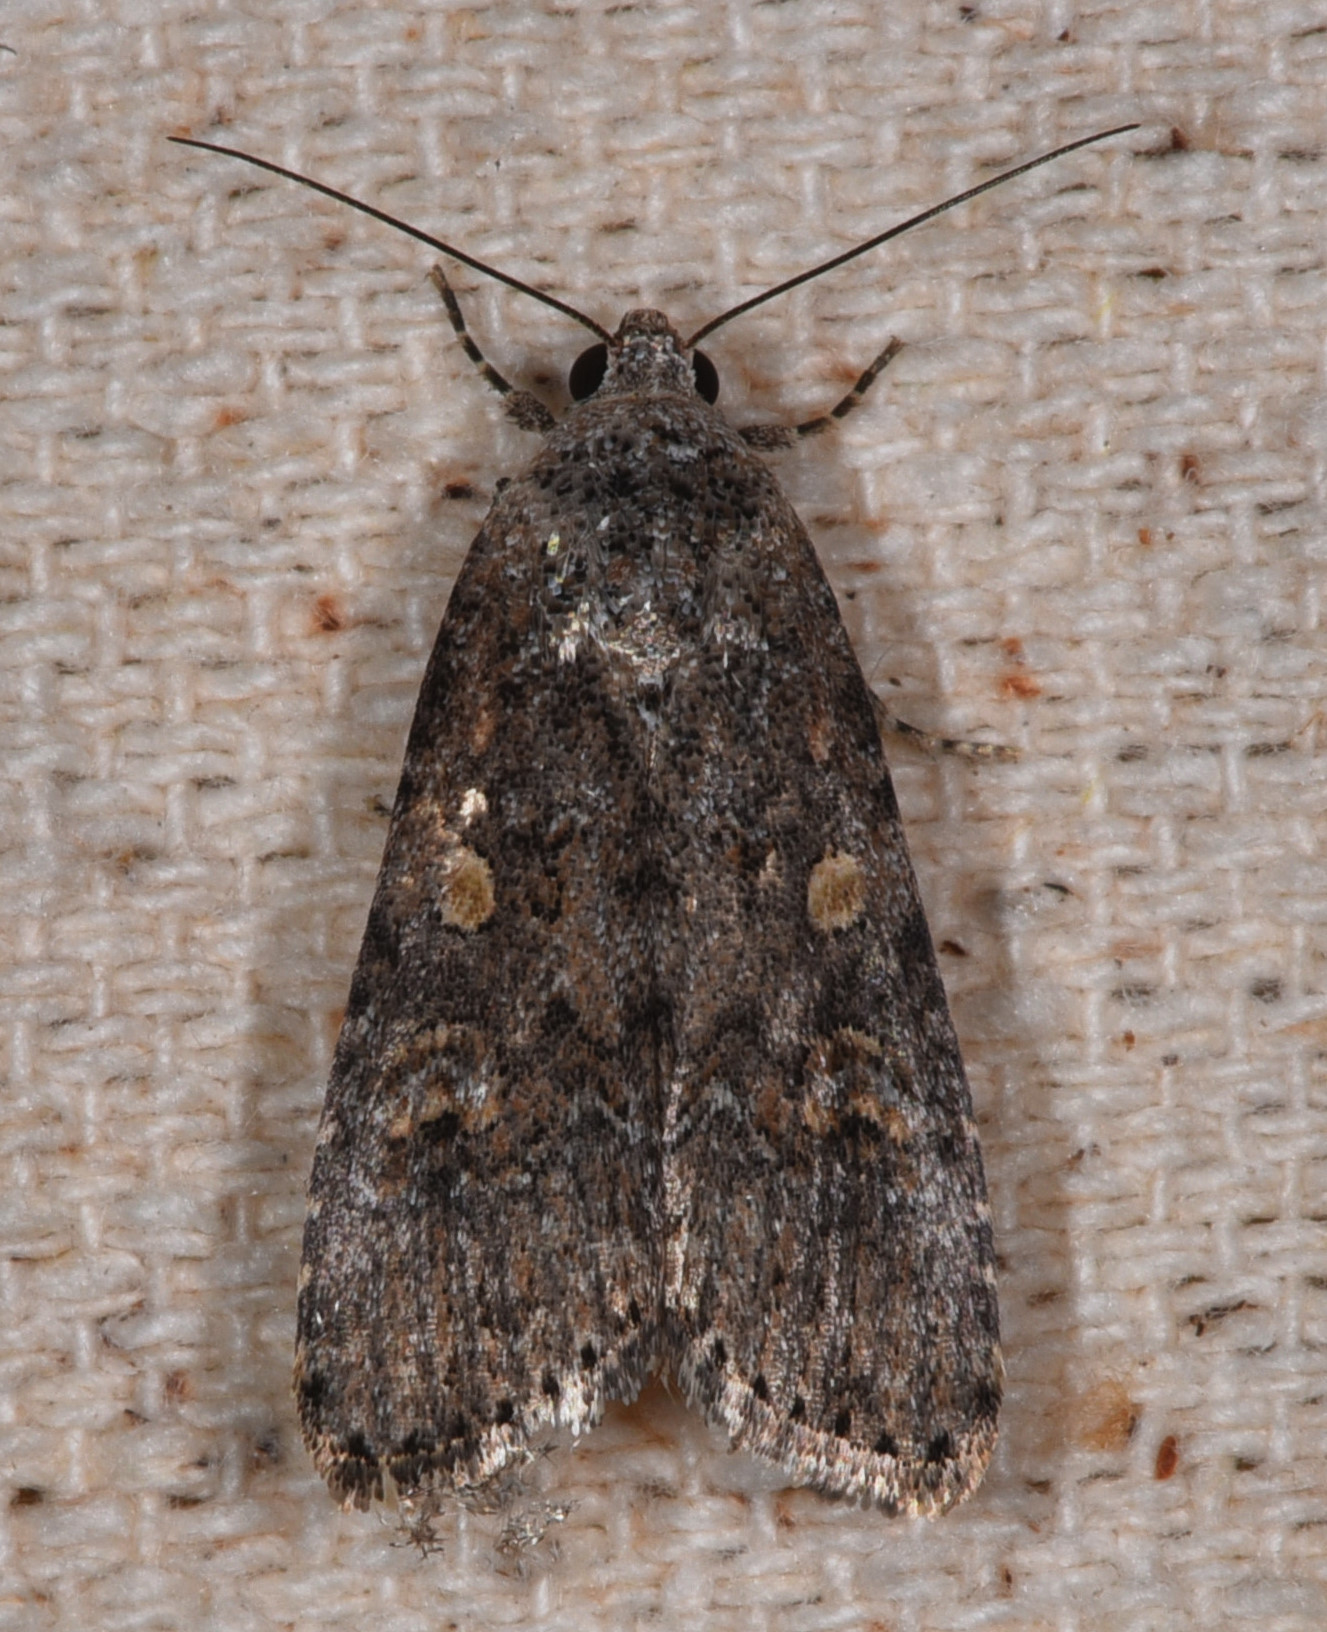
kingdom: Animalia
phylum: Arthropoda
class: Insecta
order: Lepidoptera
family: Noctuidae
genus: Spodoptera
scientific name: Spodoptera exigua
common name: Beet armyworm
